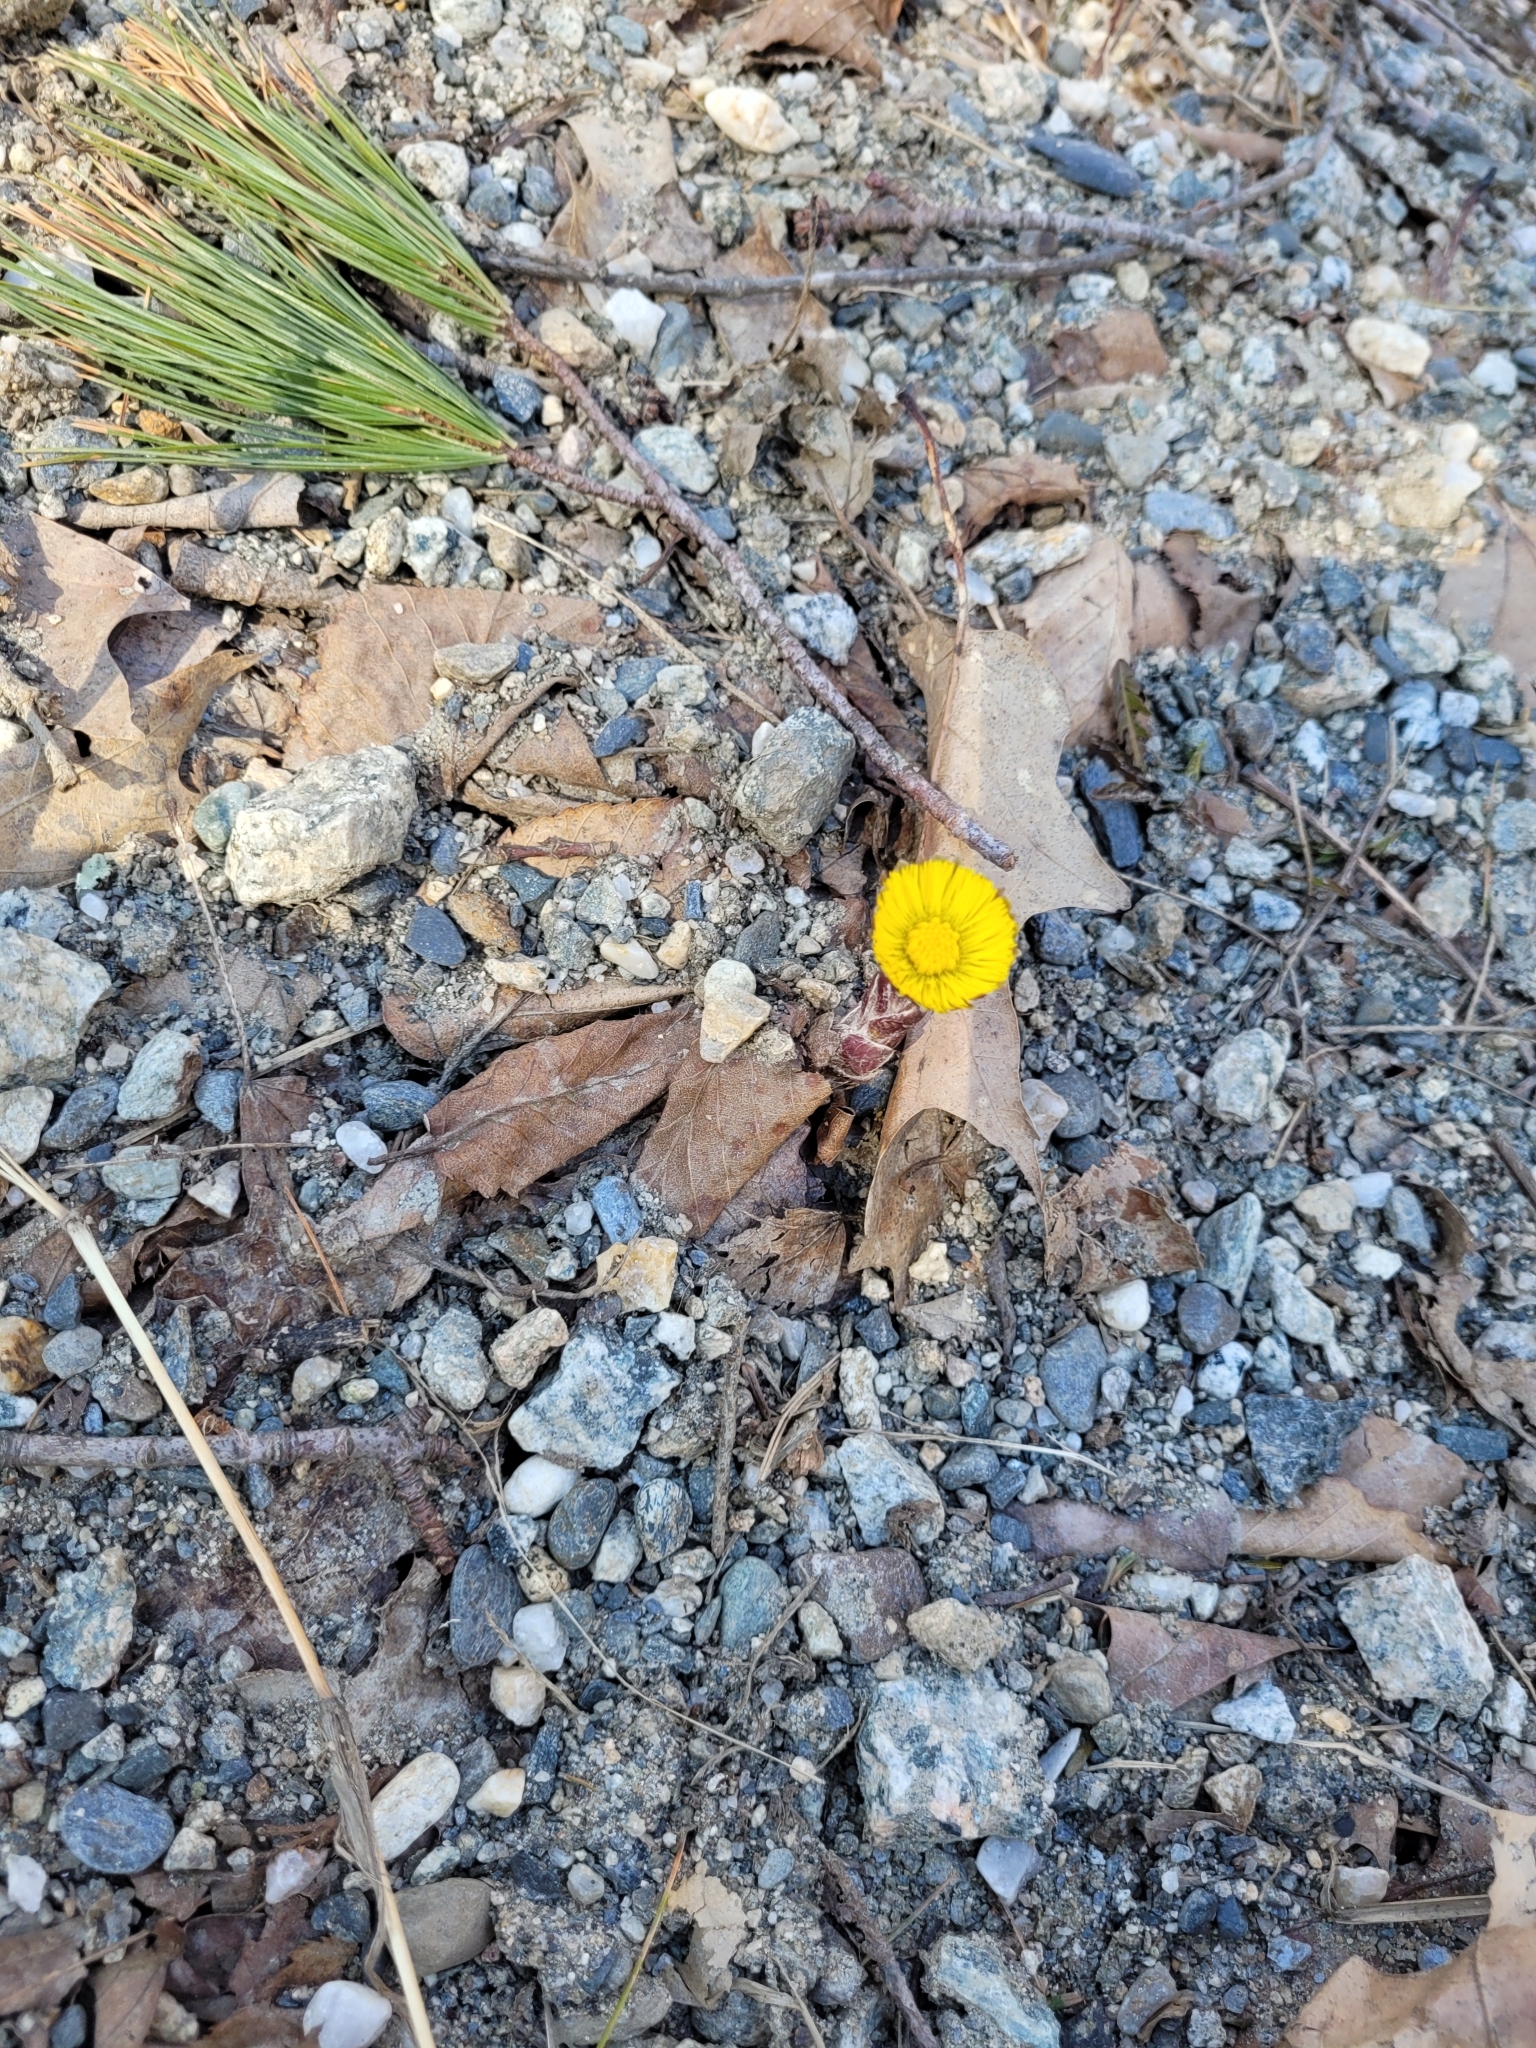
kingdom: Plantae
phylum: Tracheophyta
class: Magnoliopsida
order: Asterales
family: Asteraceae
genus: Tussilago
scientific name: Tussilago farfara
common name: Coltsfoot
